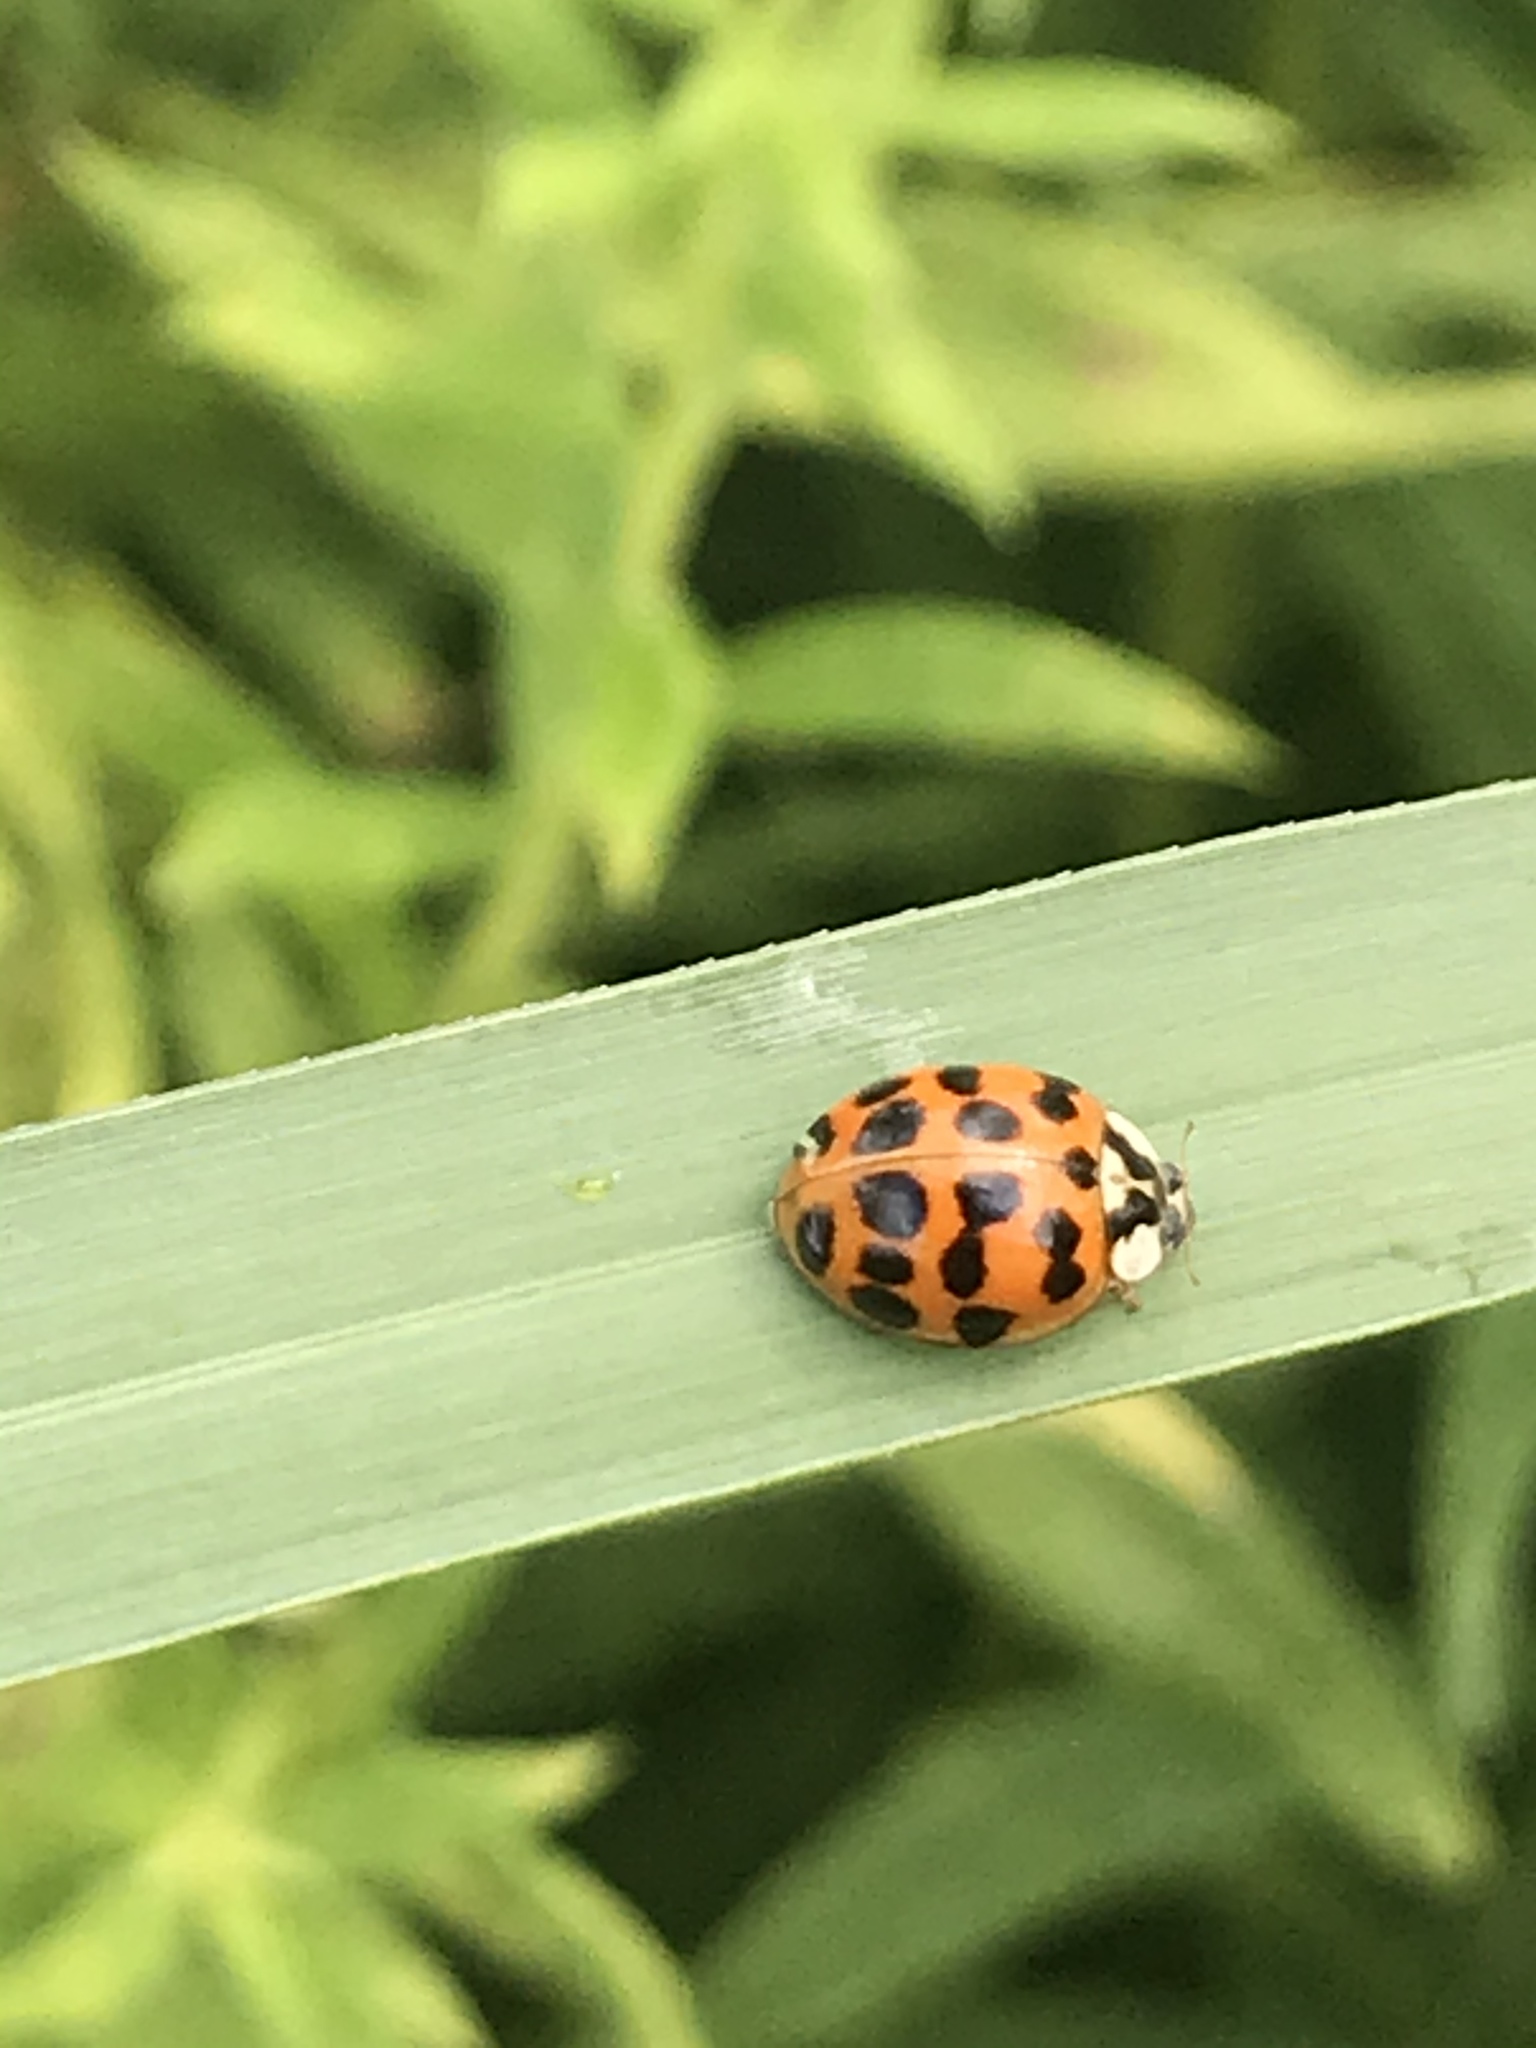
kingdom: Animalia
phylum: Arthropoda
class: Insecta
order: Coleoptera
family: Coccinellidae
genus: Harmonia
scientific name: Harmonia axyridis
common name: Harlequin ladybird
